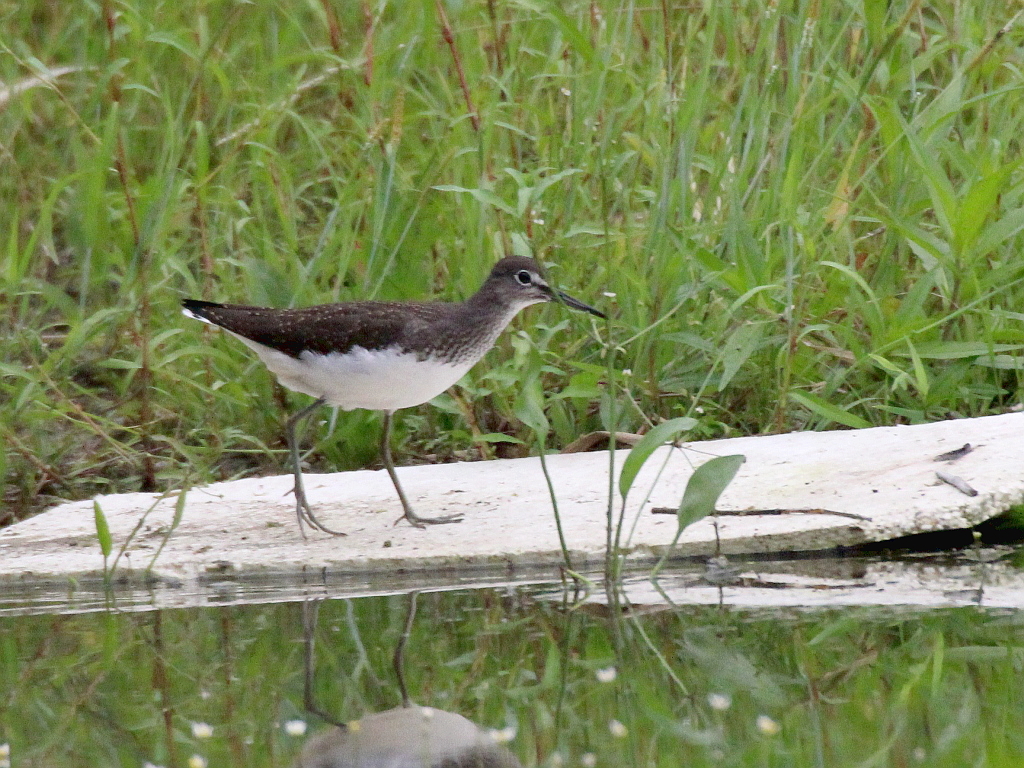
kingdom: Animalia
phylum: Chordata
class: Aves
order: Charadriiformes
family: Scolopacidae
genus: Tringa
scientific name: Tringa ochropus
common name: Green sandpiper
